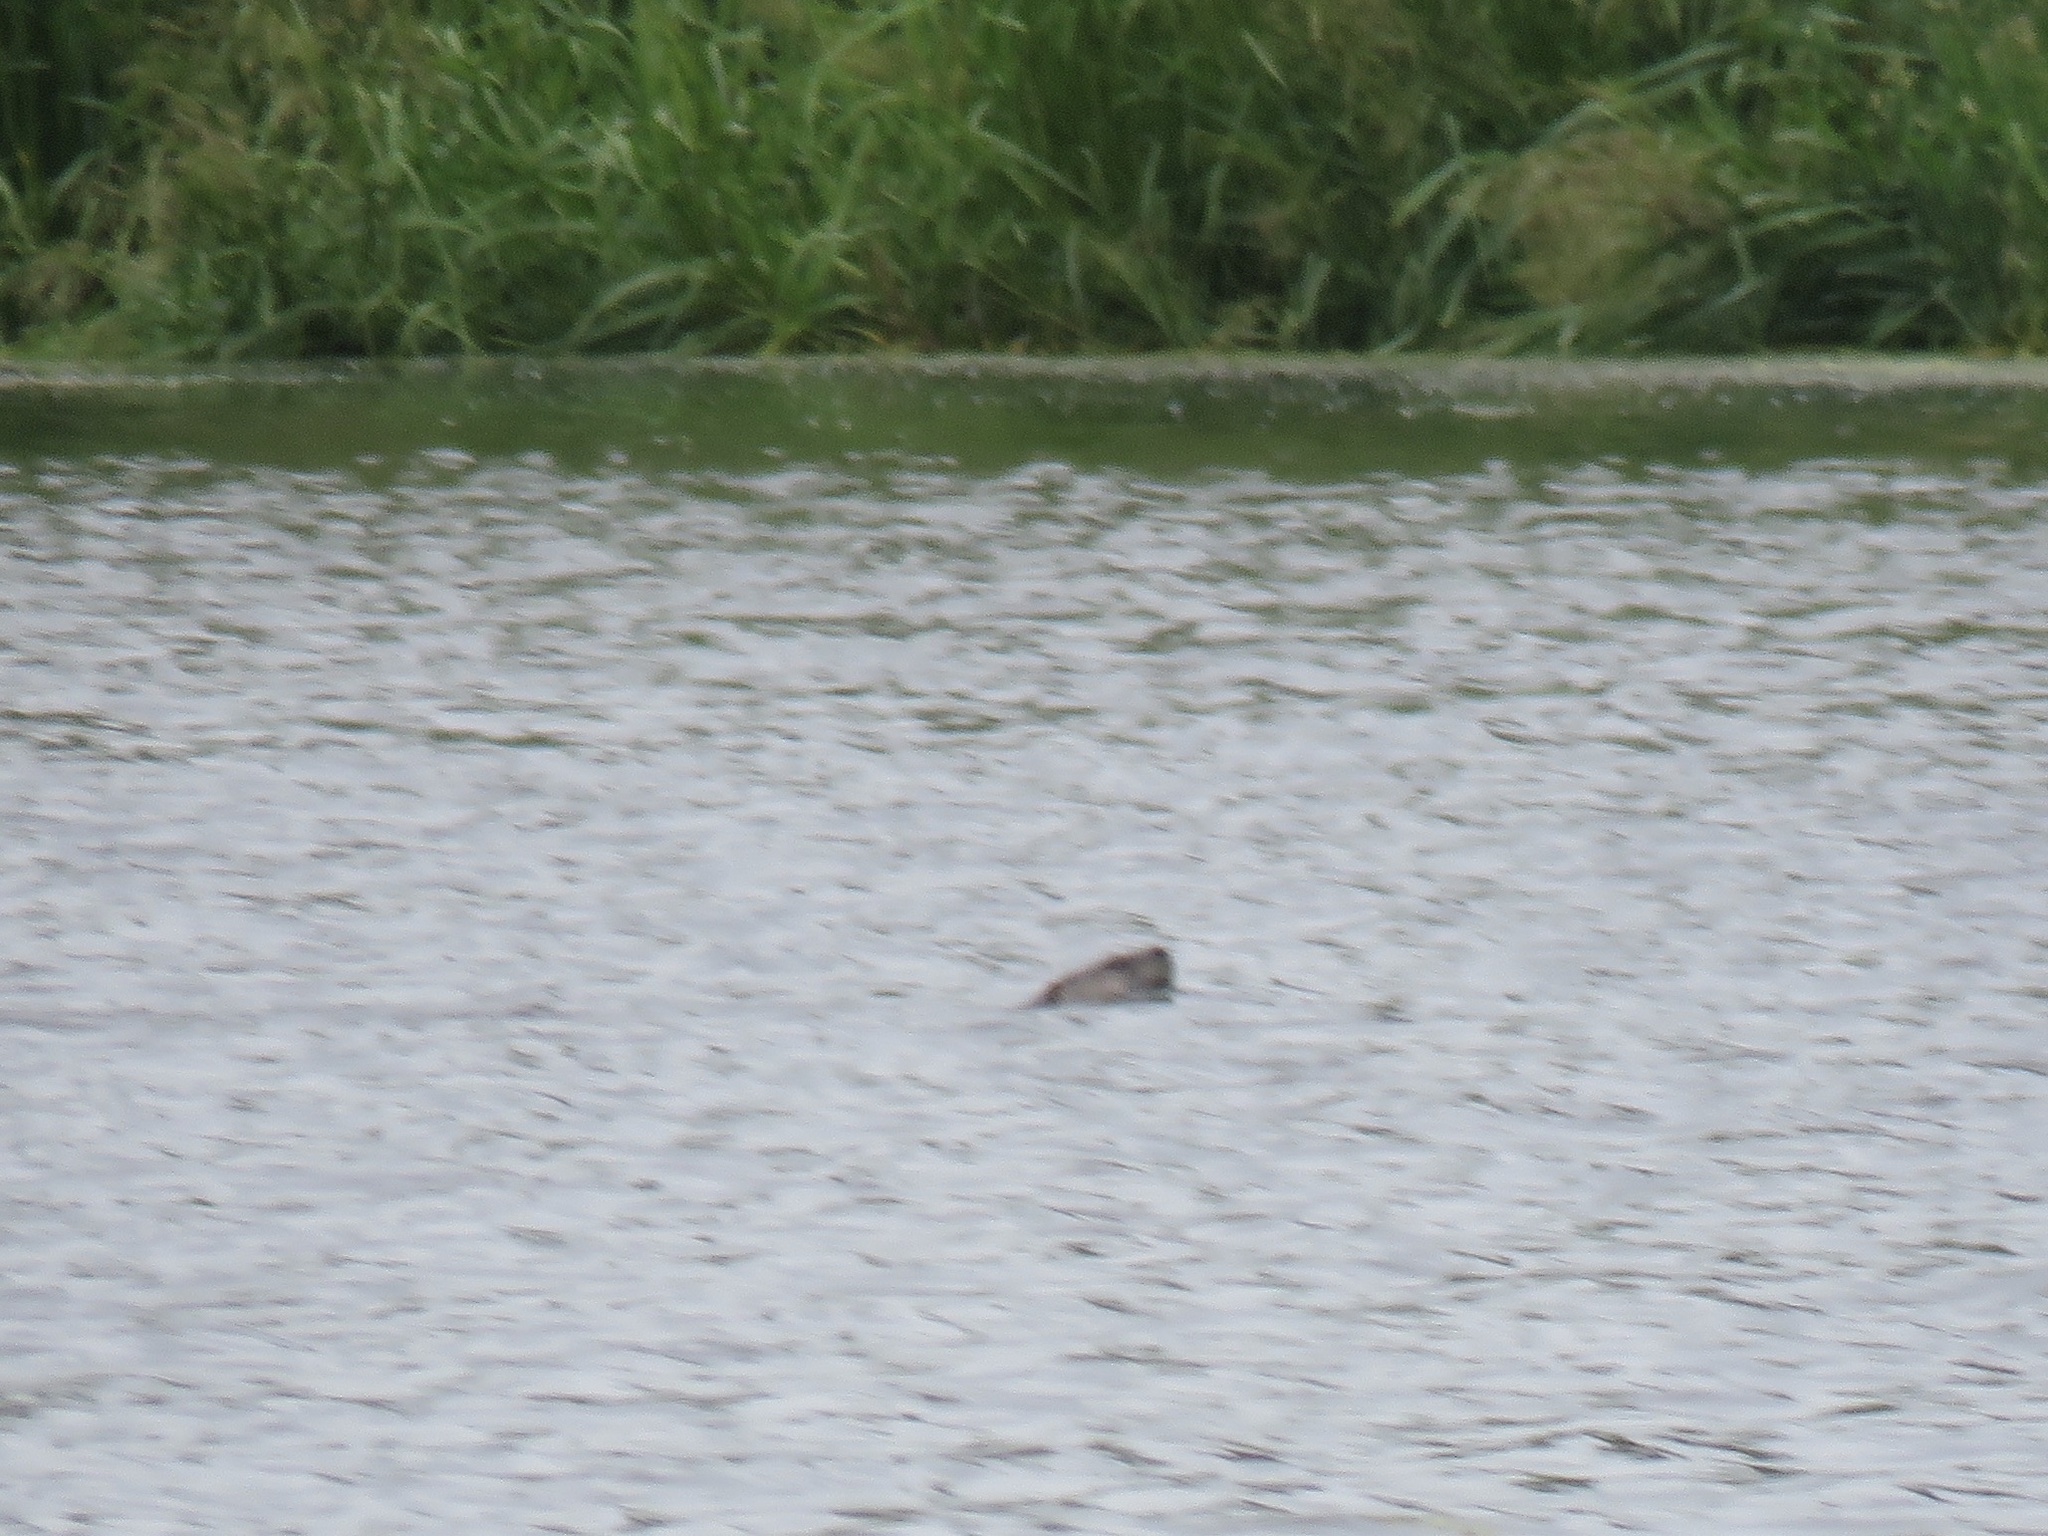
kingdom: Animalia
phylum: Chordata
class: Mammalia
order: Carnivora
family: Mustelidae
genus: Lontra
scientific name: Lontra canadensis
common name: North american river otter
